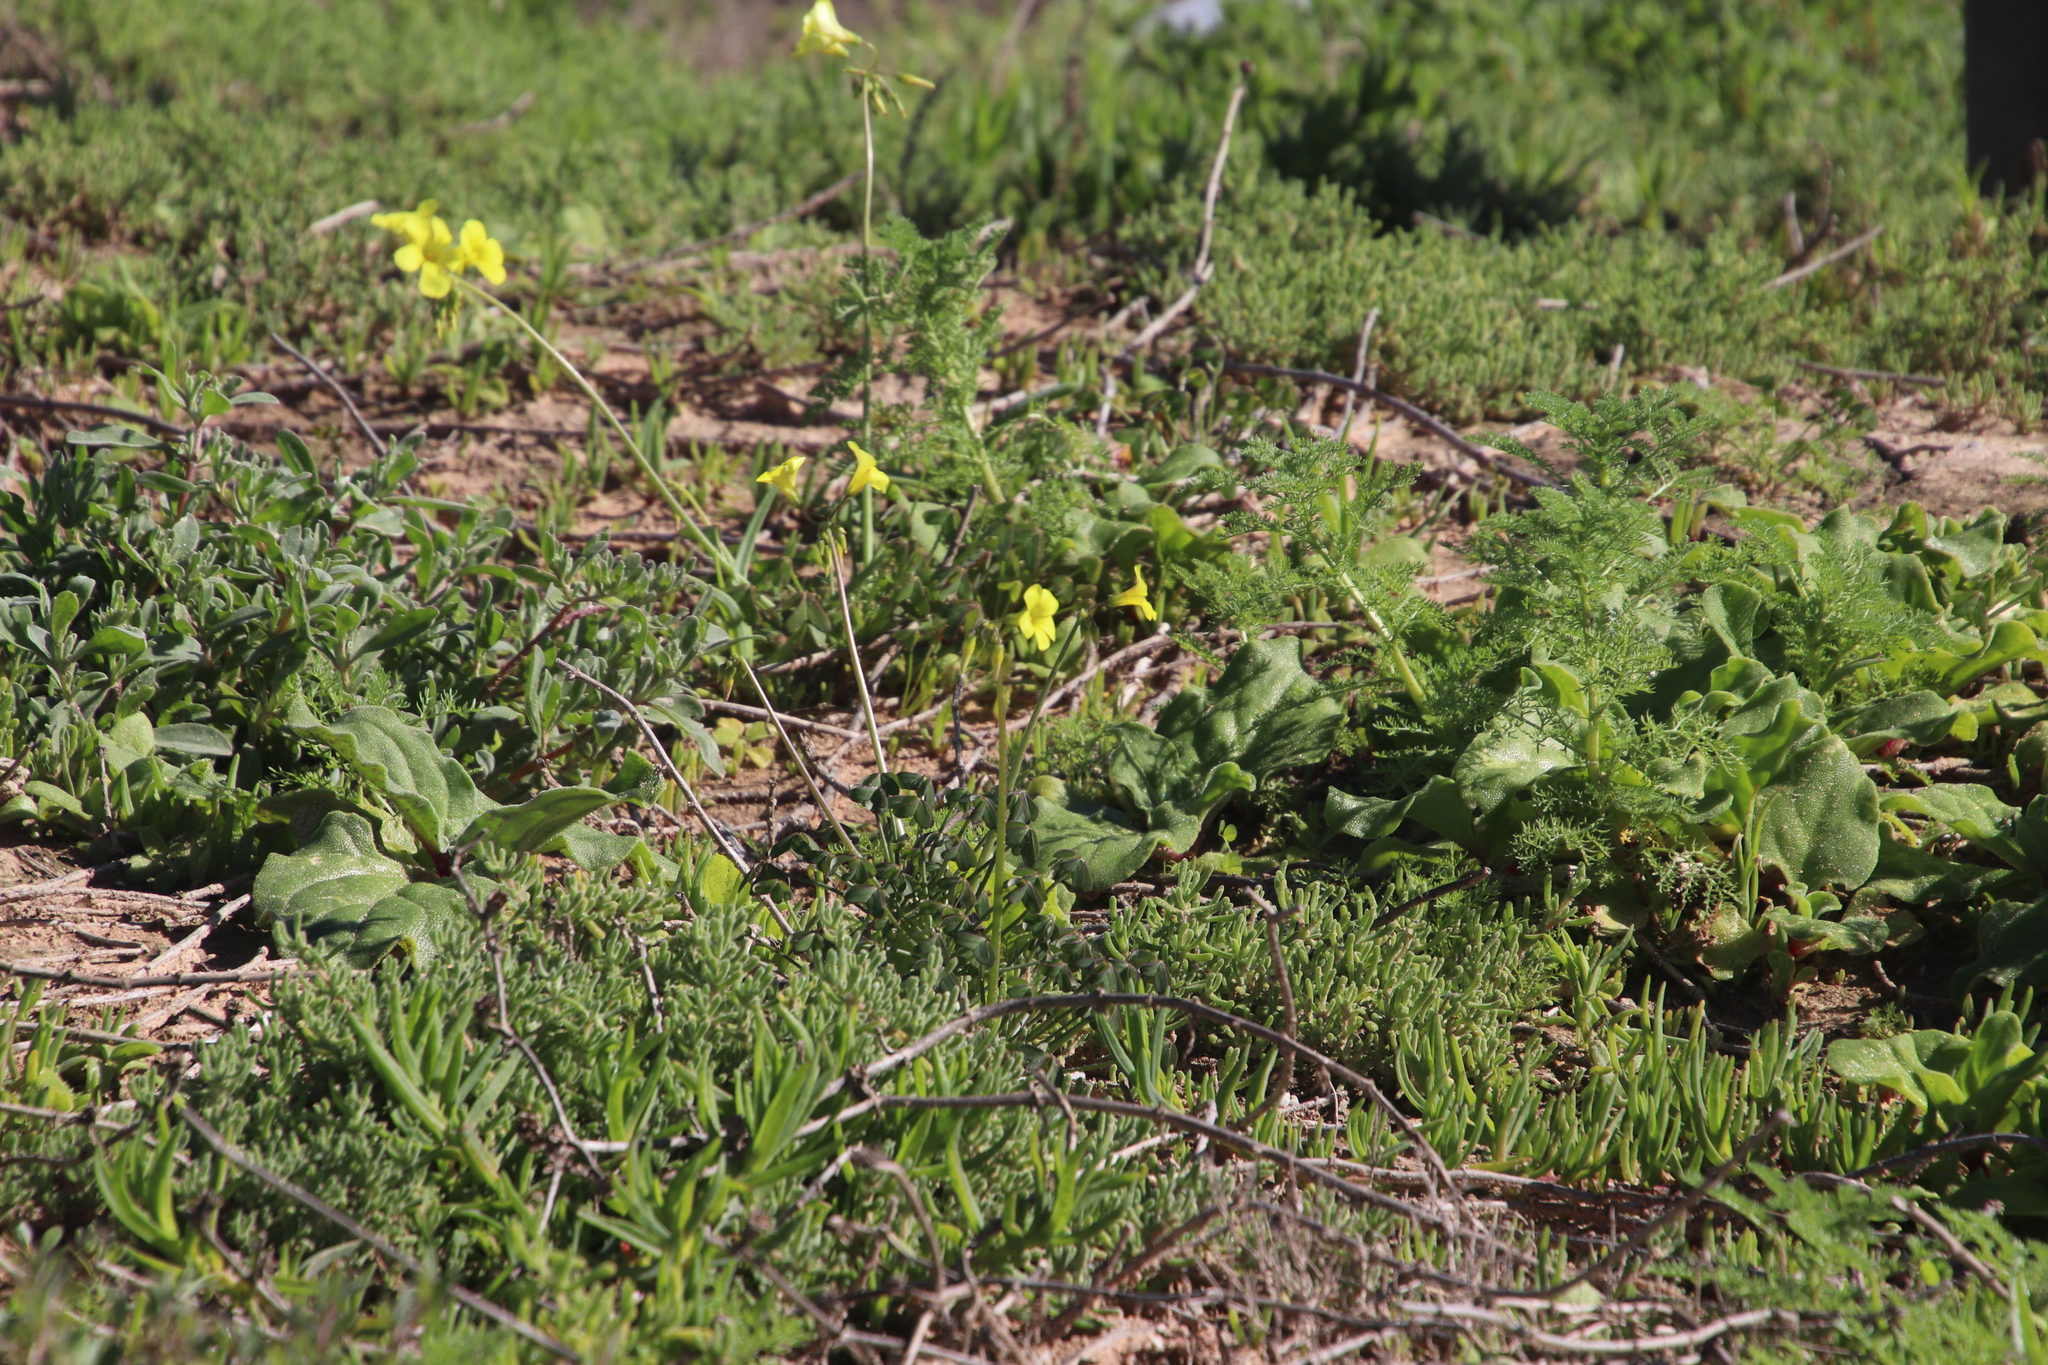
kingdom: Plantae
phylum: Tracheophyta
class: Magnoliopsida
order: Oxalidales
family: Oxalidaceae
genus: Oxalis
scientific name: Oxalis pes-caprae
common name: Bermuda-buttercup
